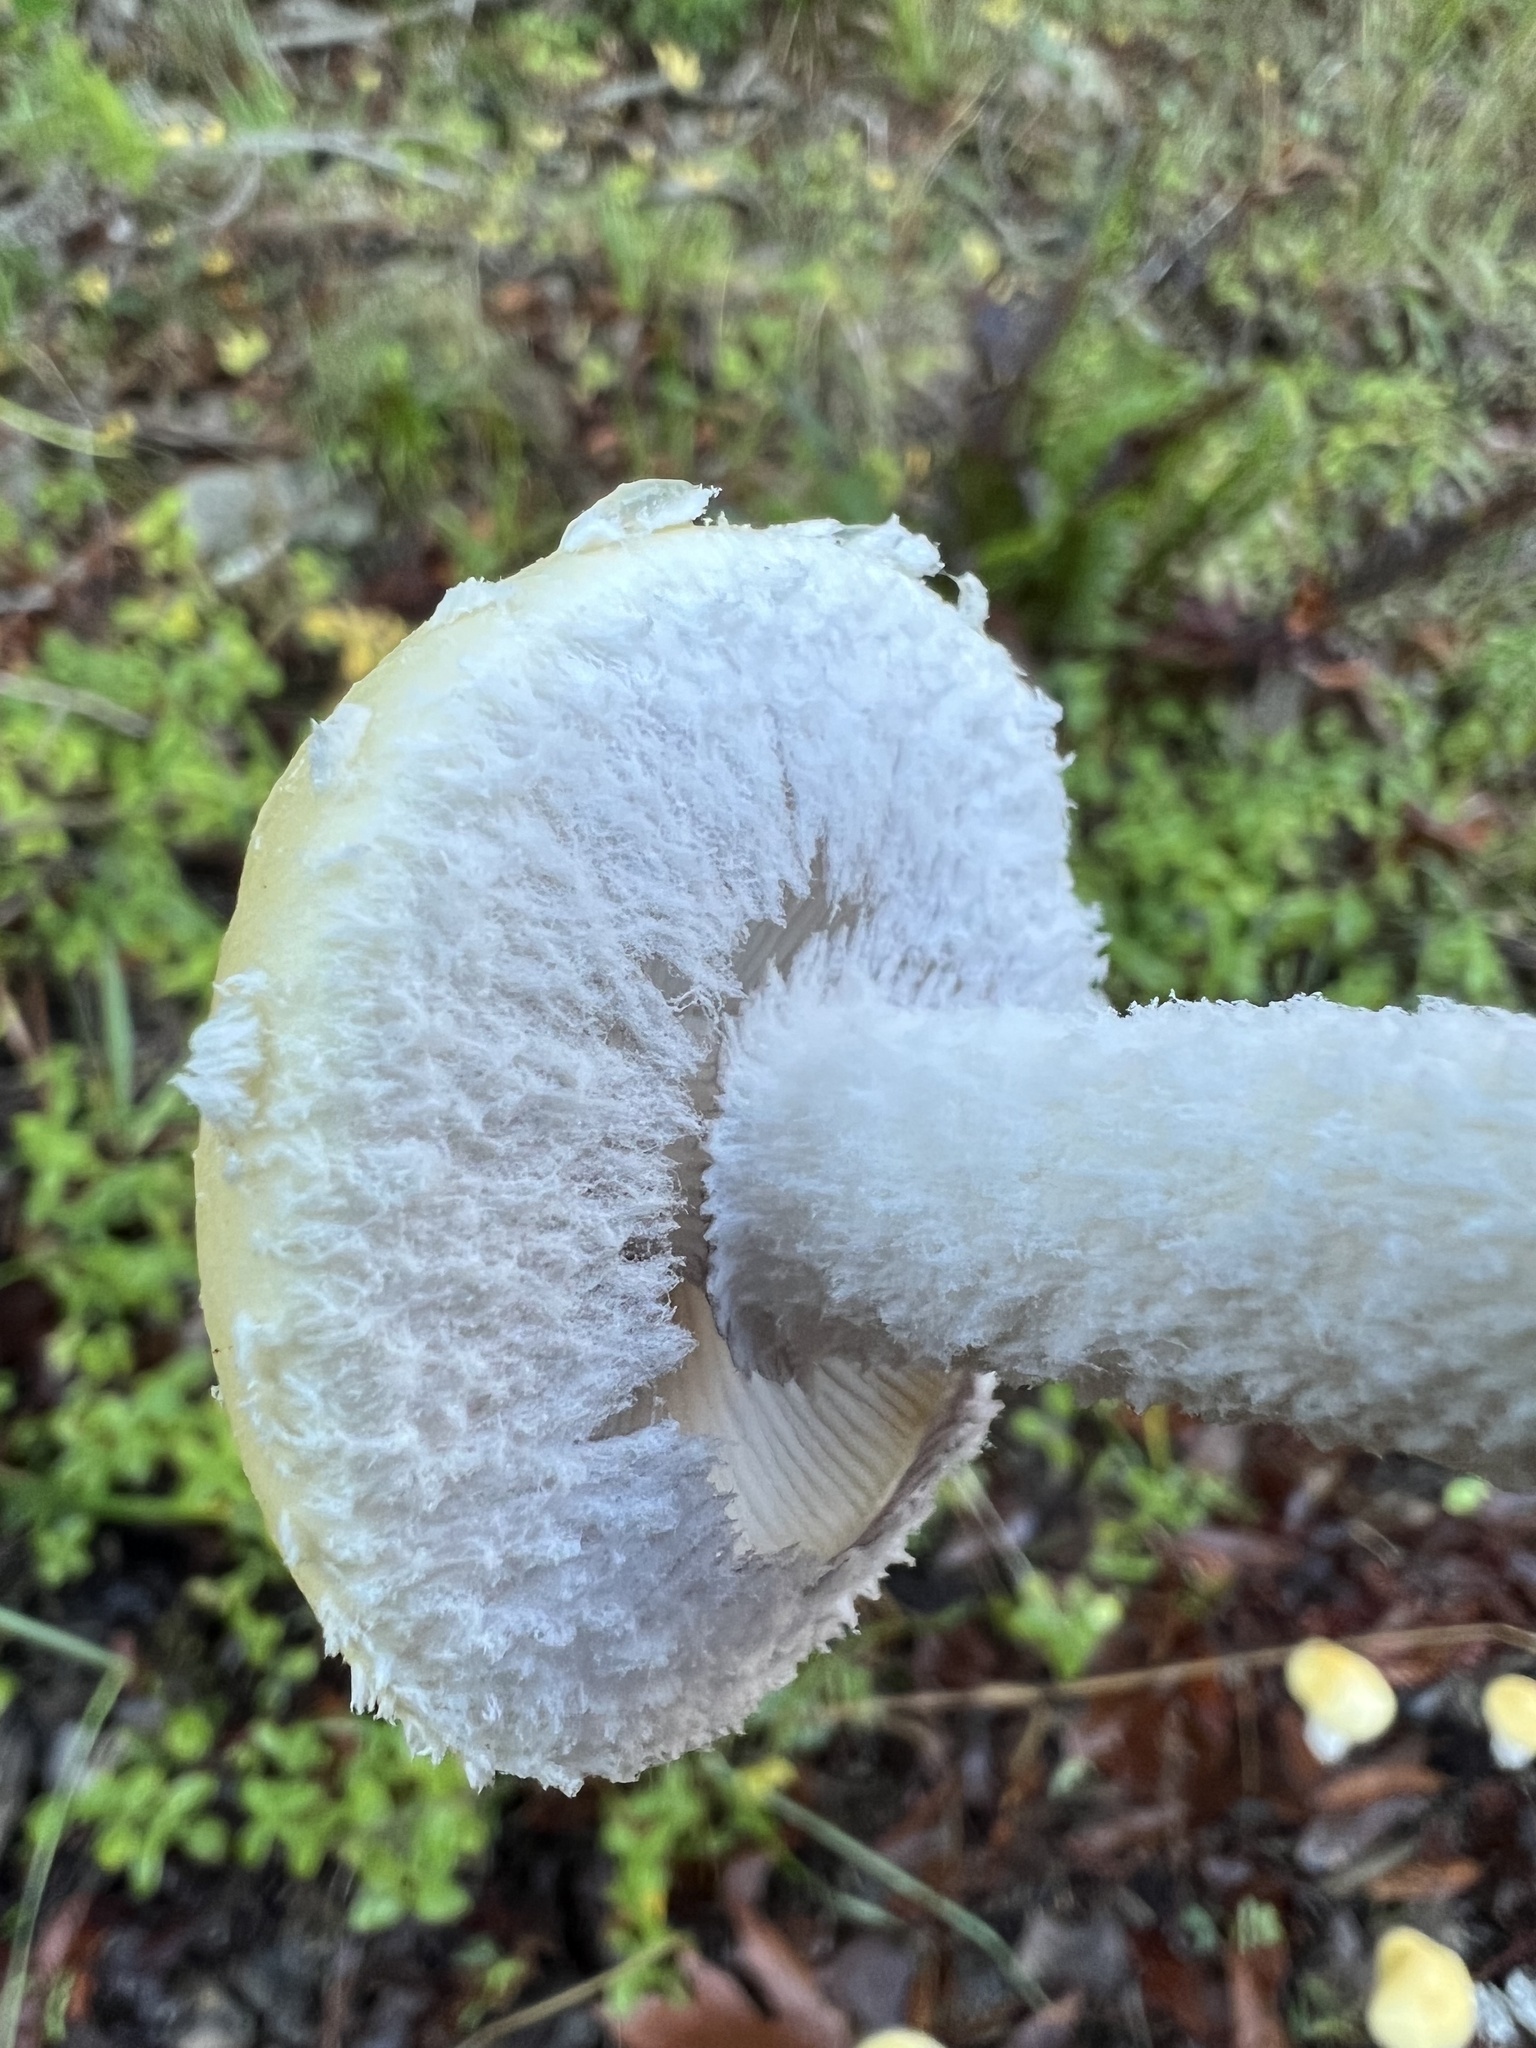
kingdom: Fungi
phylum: Basidiomycota
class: Agaricomycetes
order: Agaricales
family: Strophariaceae
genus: Stropharia
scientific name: Stropharia ambigua
